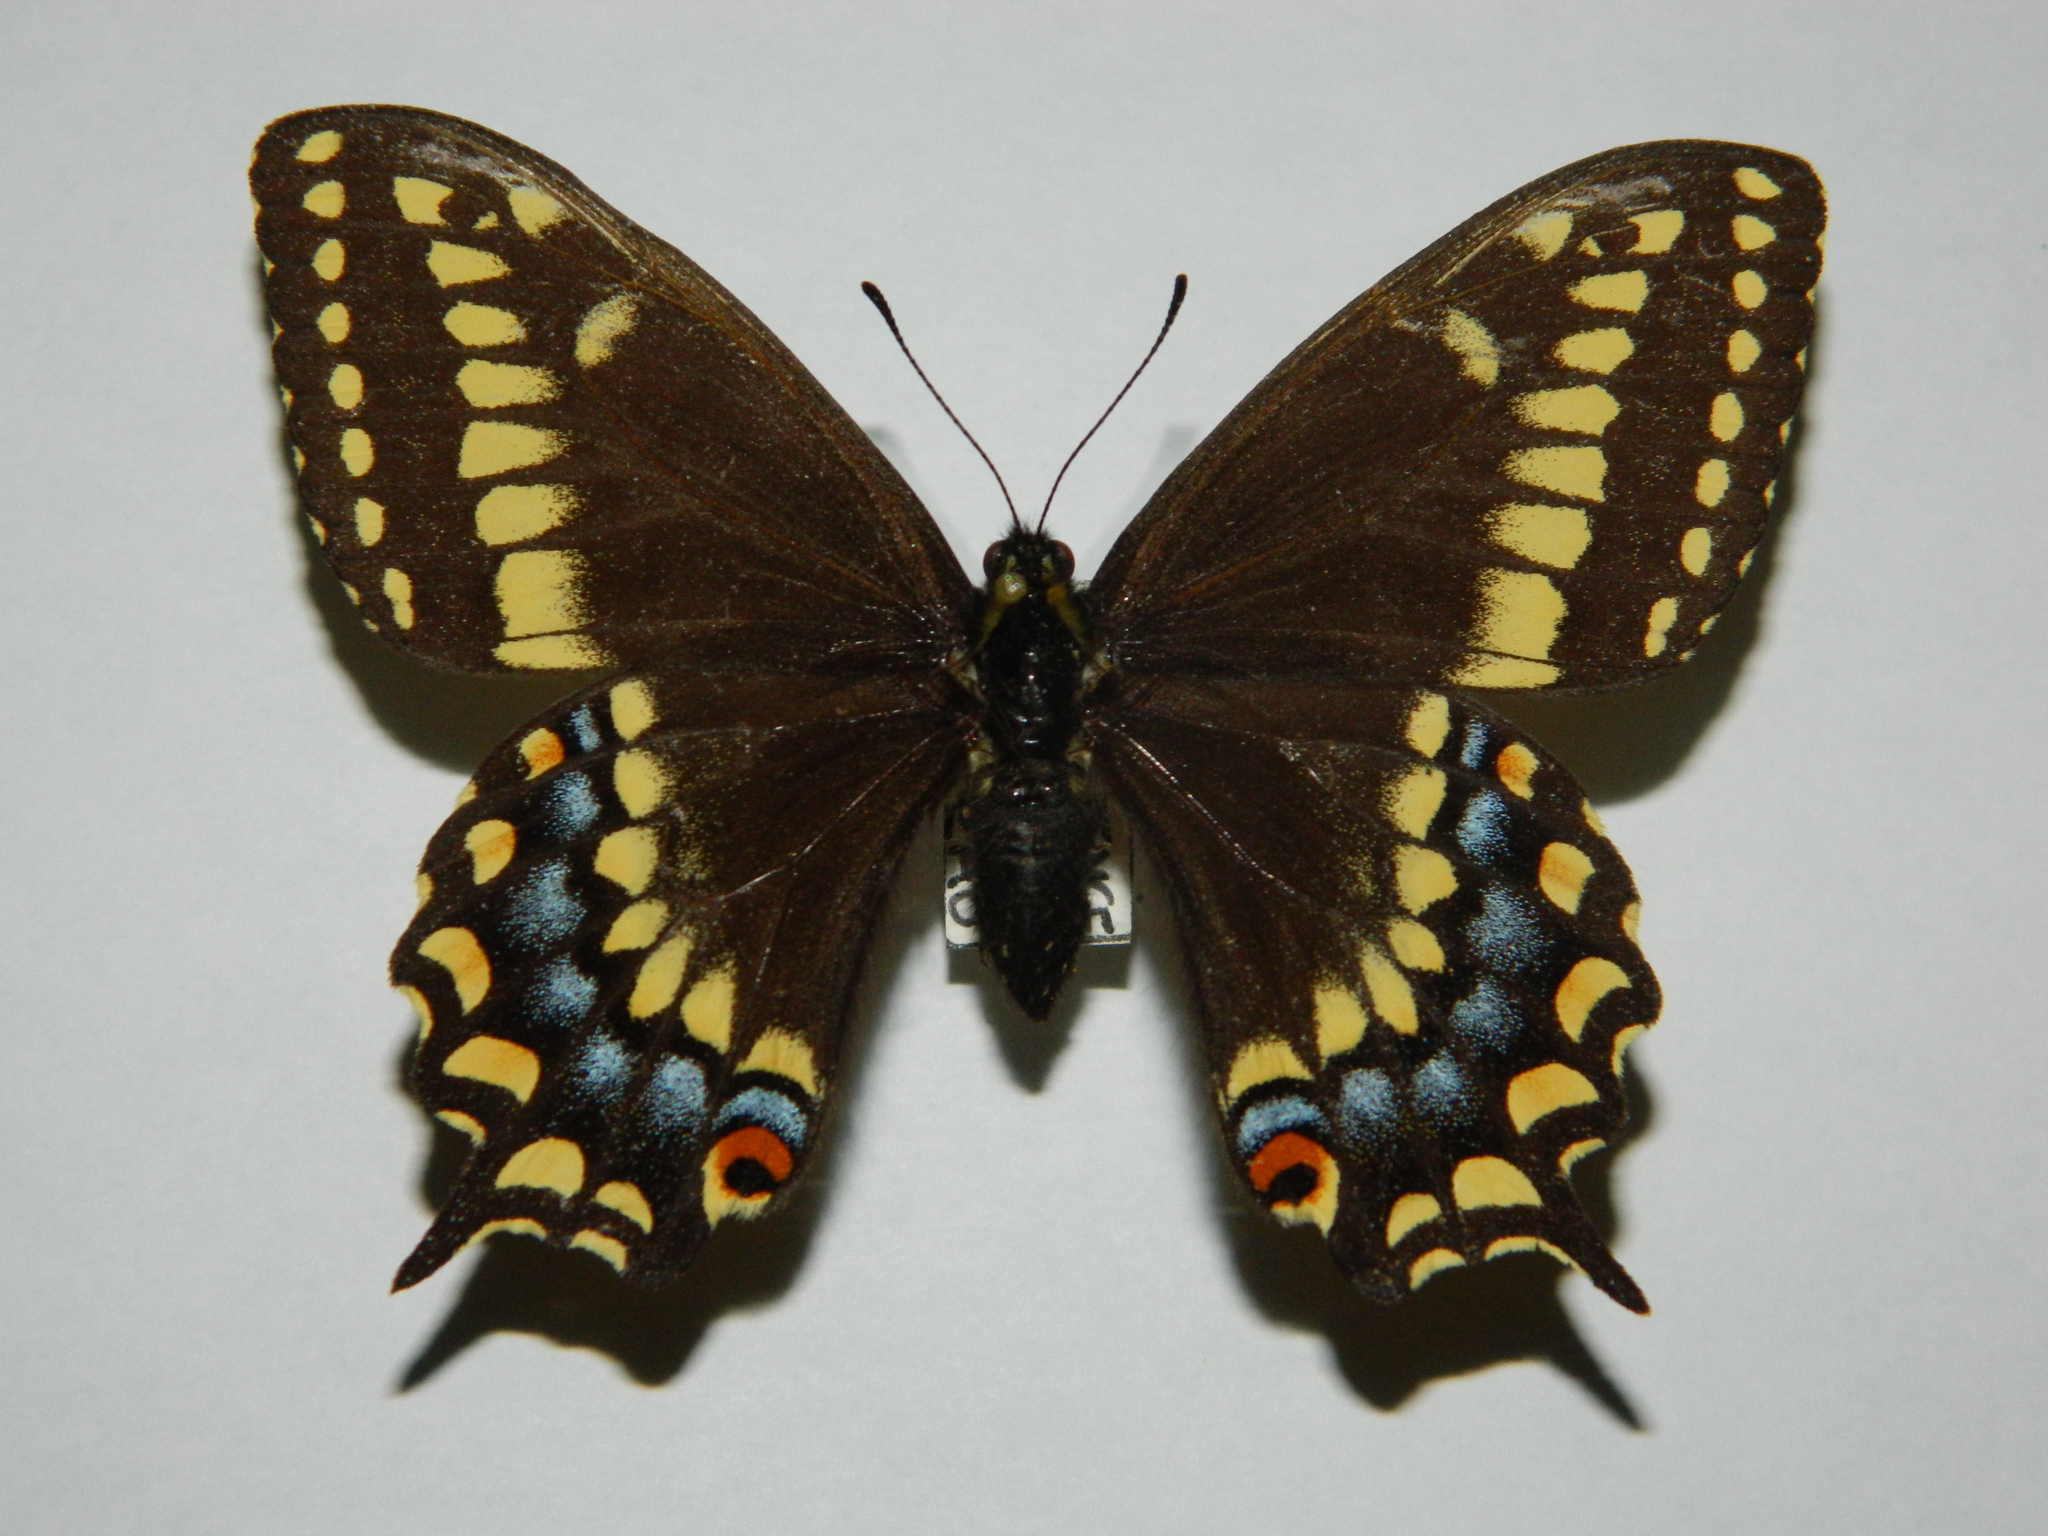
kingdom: Animalia
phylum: Arthropoda
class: Insecta
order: Lepidoptera
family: Papilionidae
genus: Papilio
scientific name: Papilio brevicauda
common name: Short tailed swallowtail
